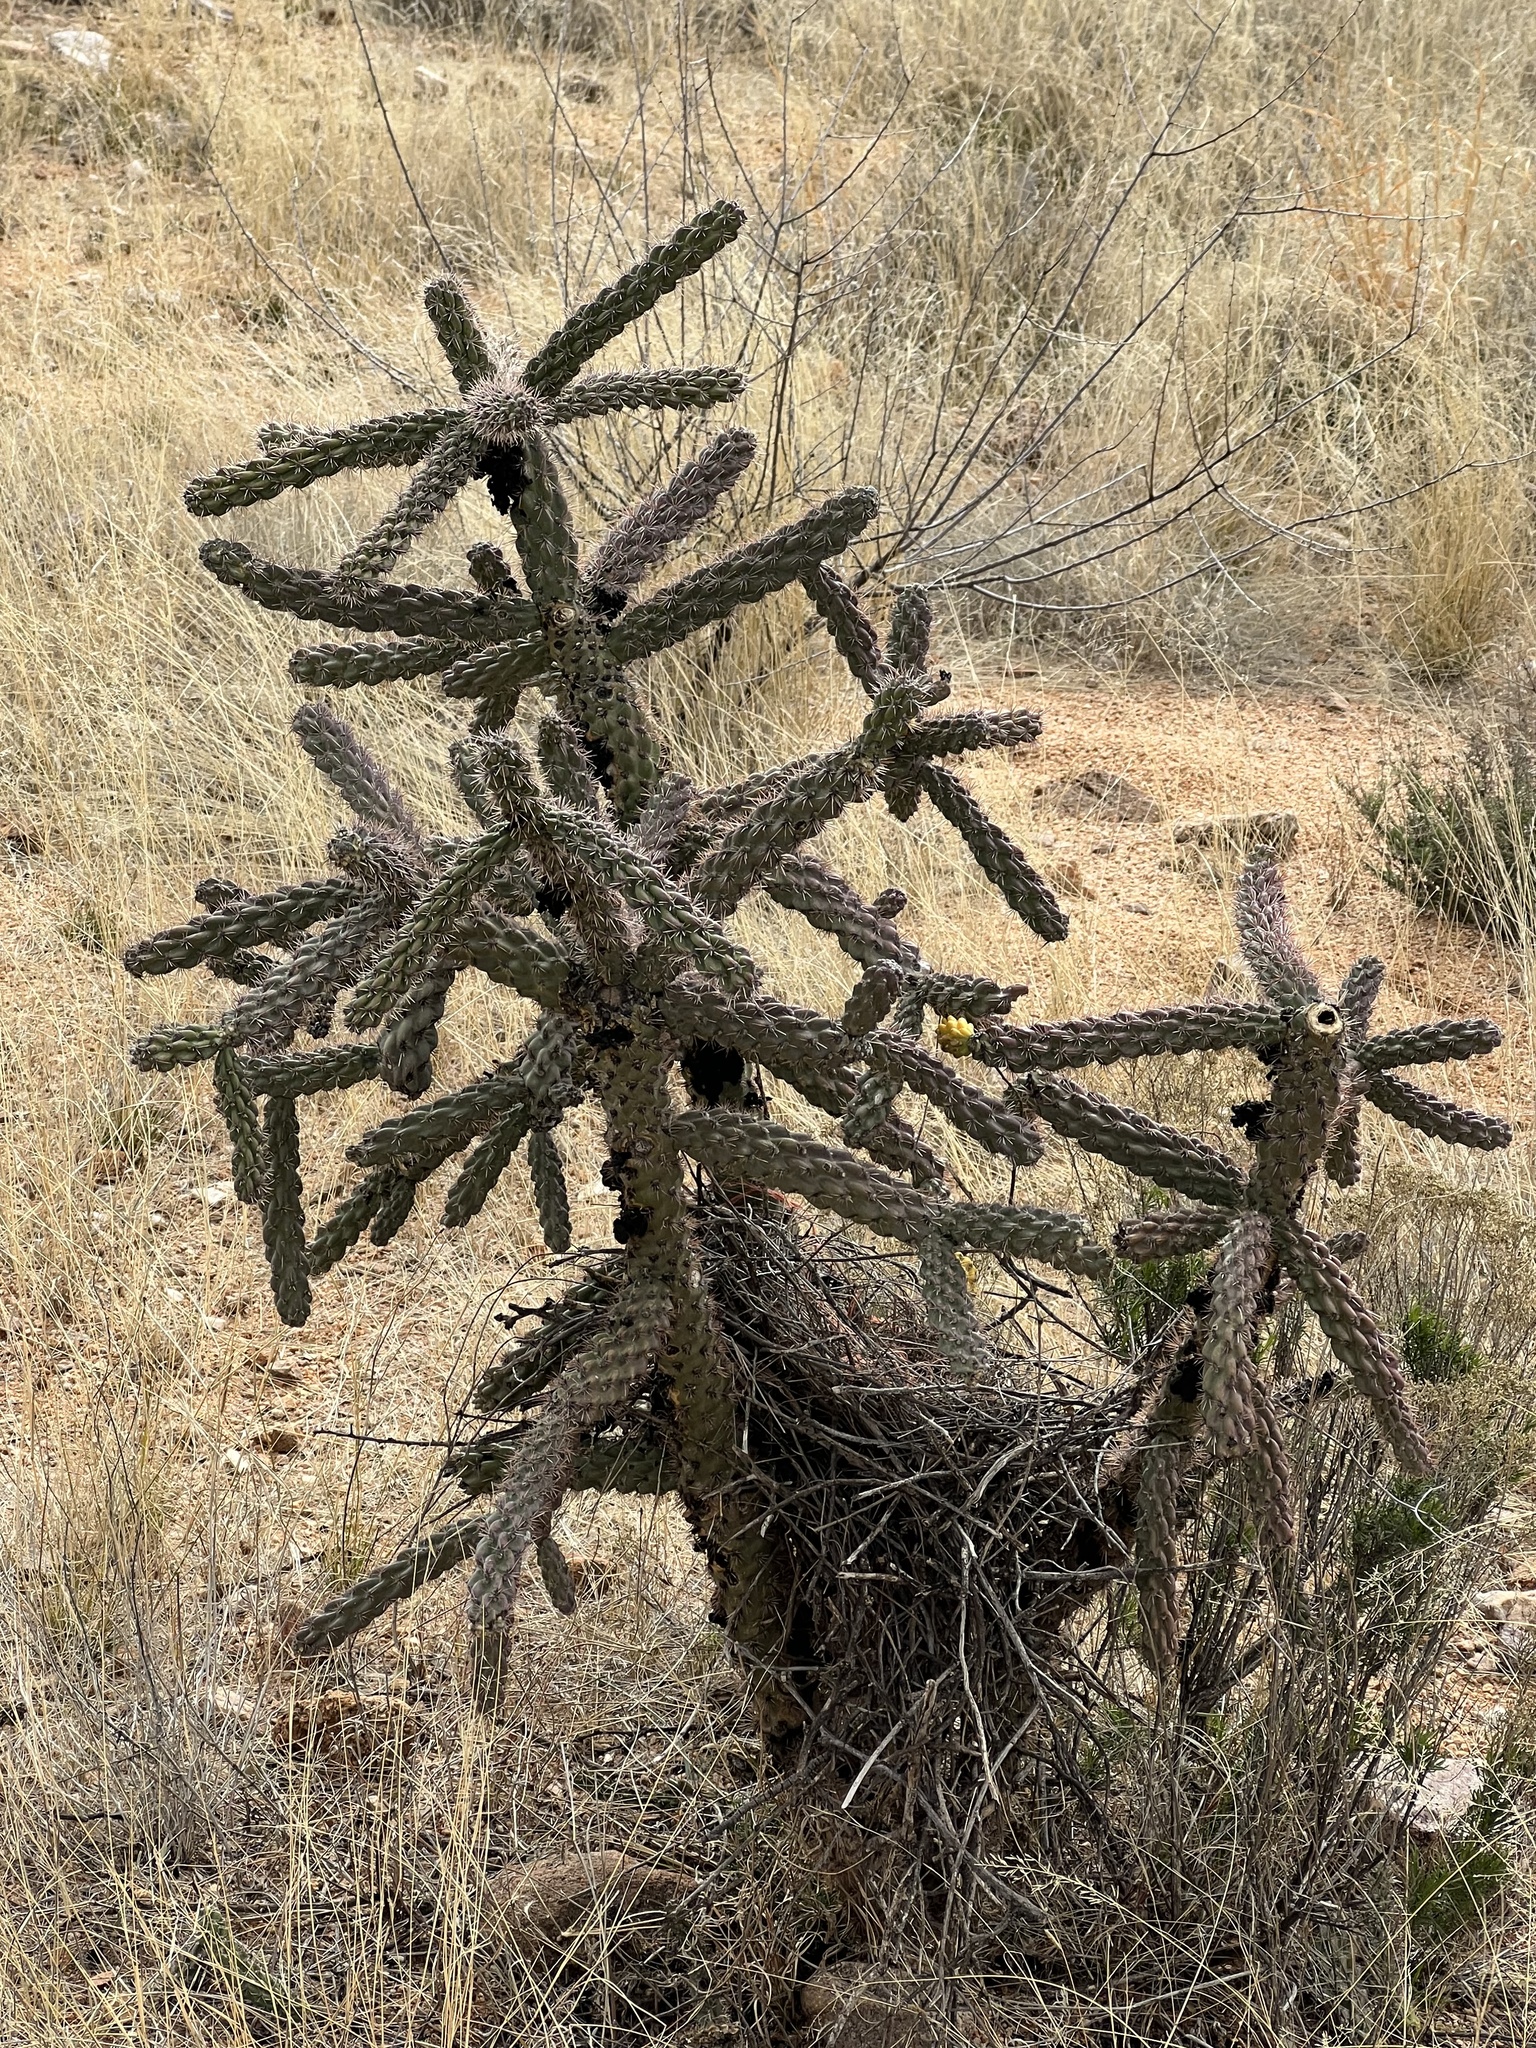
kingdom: Plantae
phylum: Tracheophyta
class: Magnoliopsida
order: Caryophyllales
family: Cactaceae
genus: Cylindropuntia
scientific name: Cylindropuntia imbricata
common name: Candelabrum cactus
